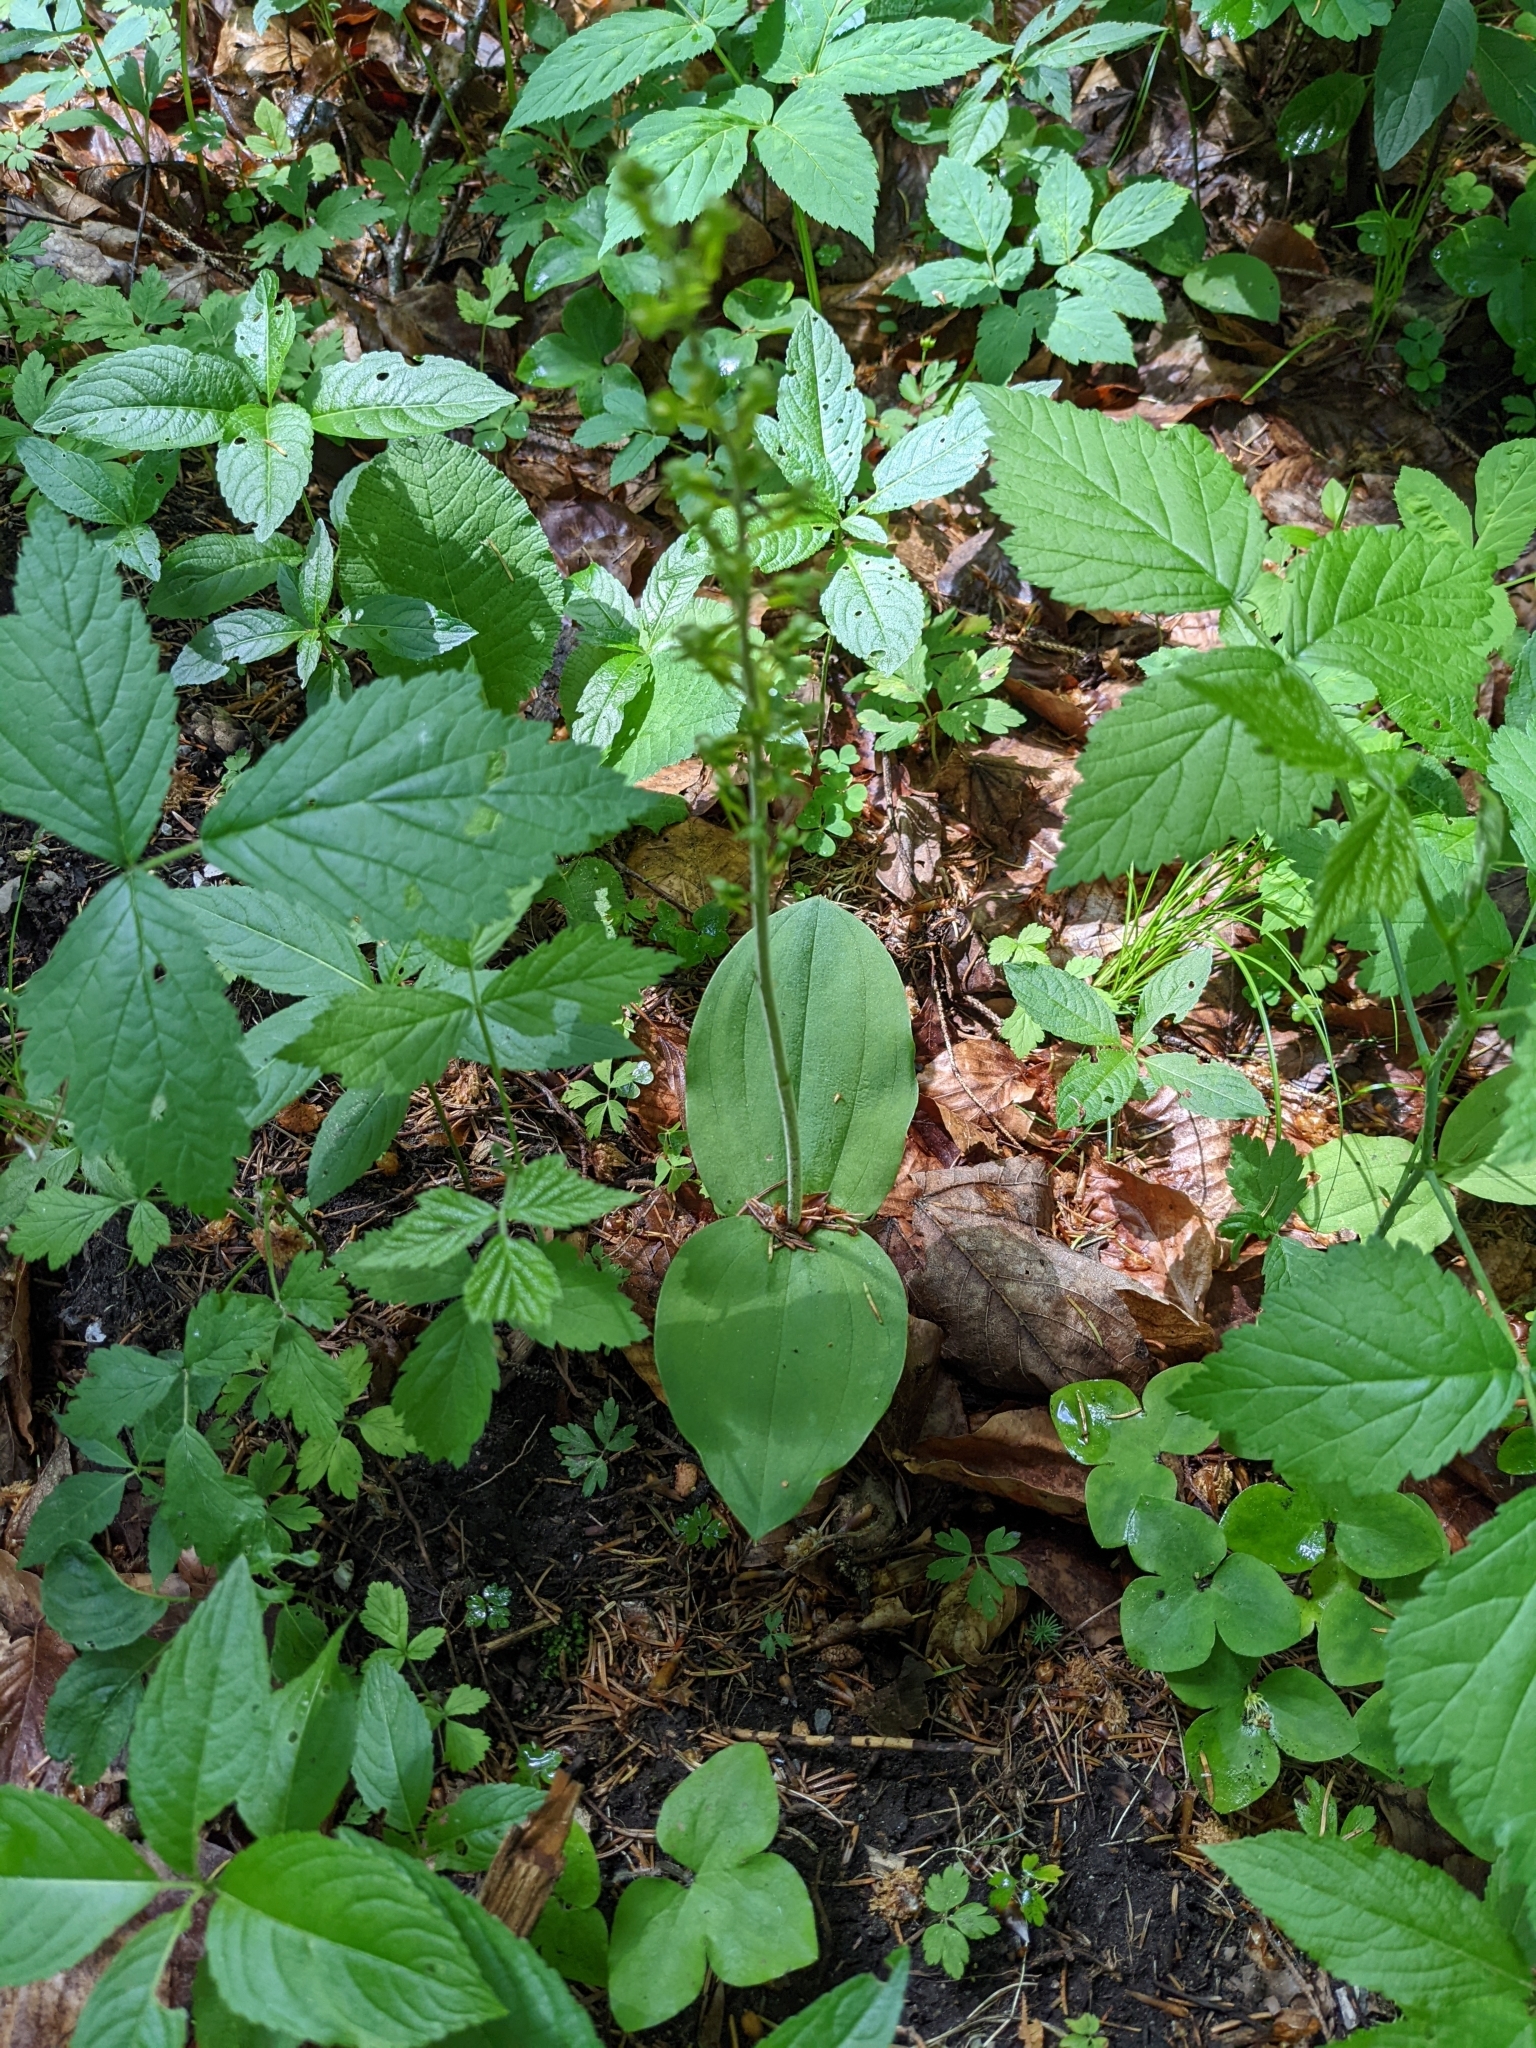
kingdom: Plantae
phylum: Tracheophyta
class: Liliopsida
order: Asparagales
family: Orchidaceae
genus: Neottia
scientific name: Neottia ovata
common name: Common twayblade
